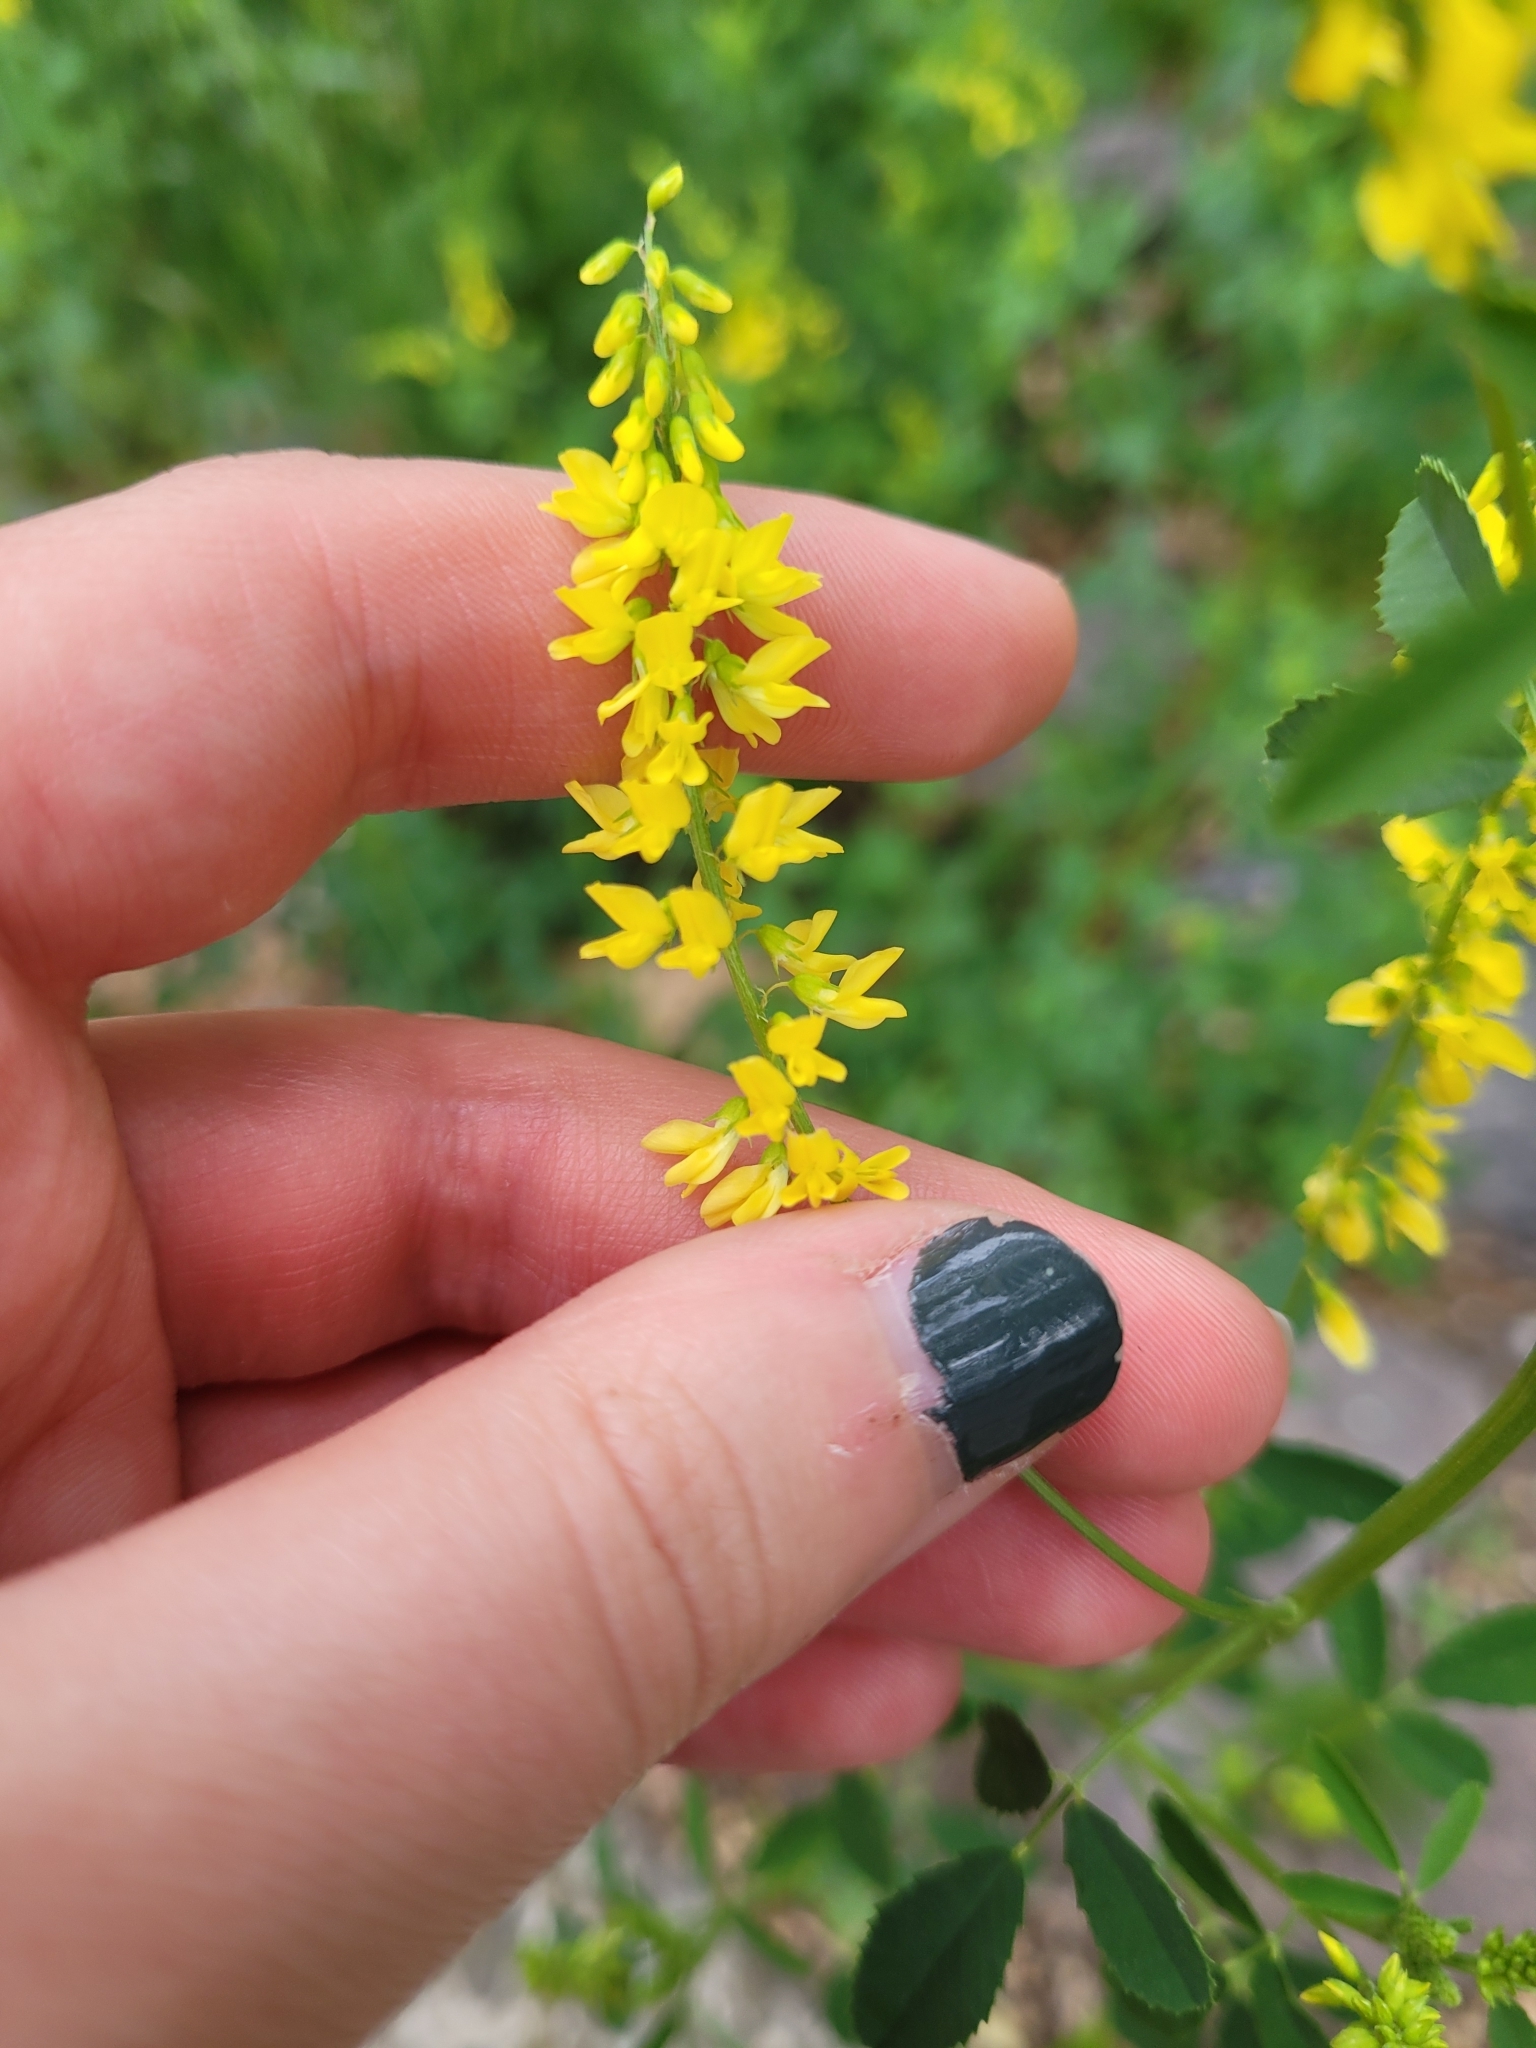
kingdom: Plantae
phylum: Tracheophyta
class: Magnoliopsida
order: Fabales
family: Fabaceae
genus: Melilotus
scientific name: Melilotus officinalis
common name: Sweetclover
